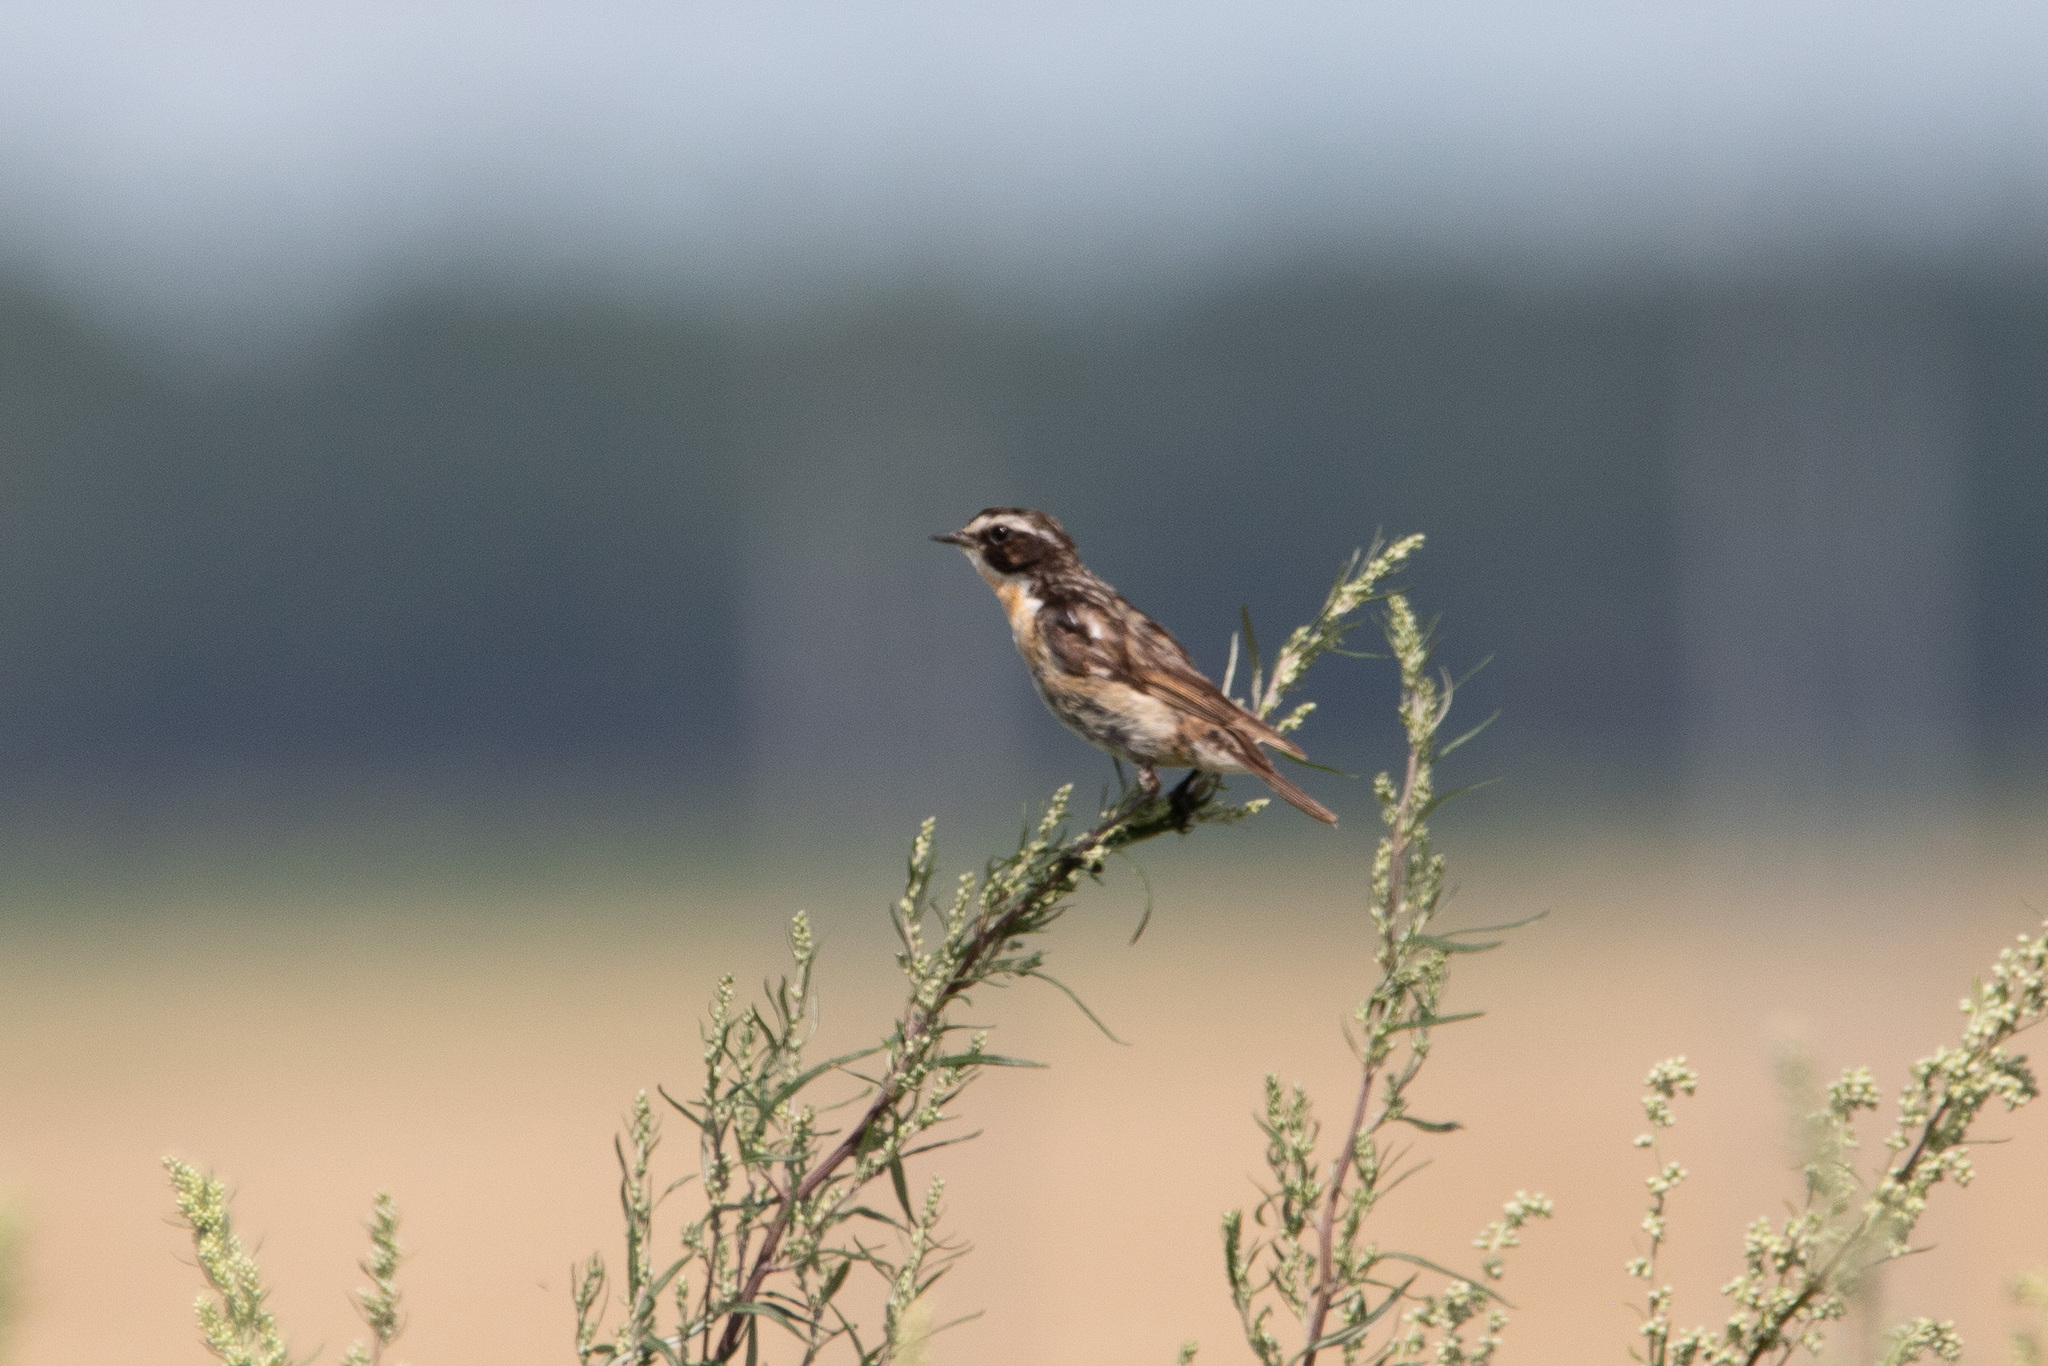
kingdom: Animalia
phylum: Chordata
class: Aves
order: Passeriformes
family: Muscicapidae
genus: Saxicola
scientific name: Saxicola rubetra
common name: Whinchat
